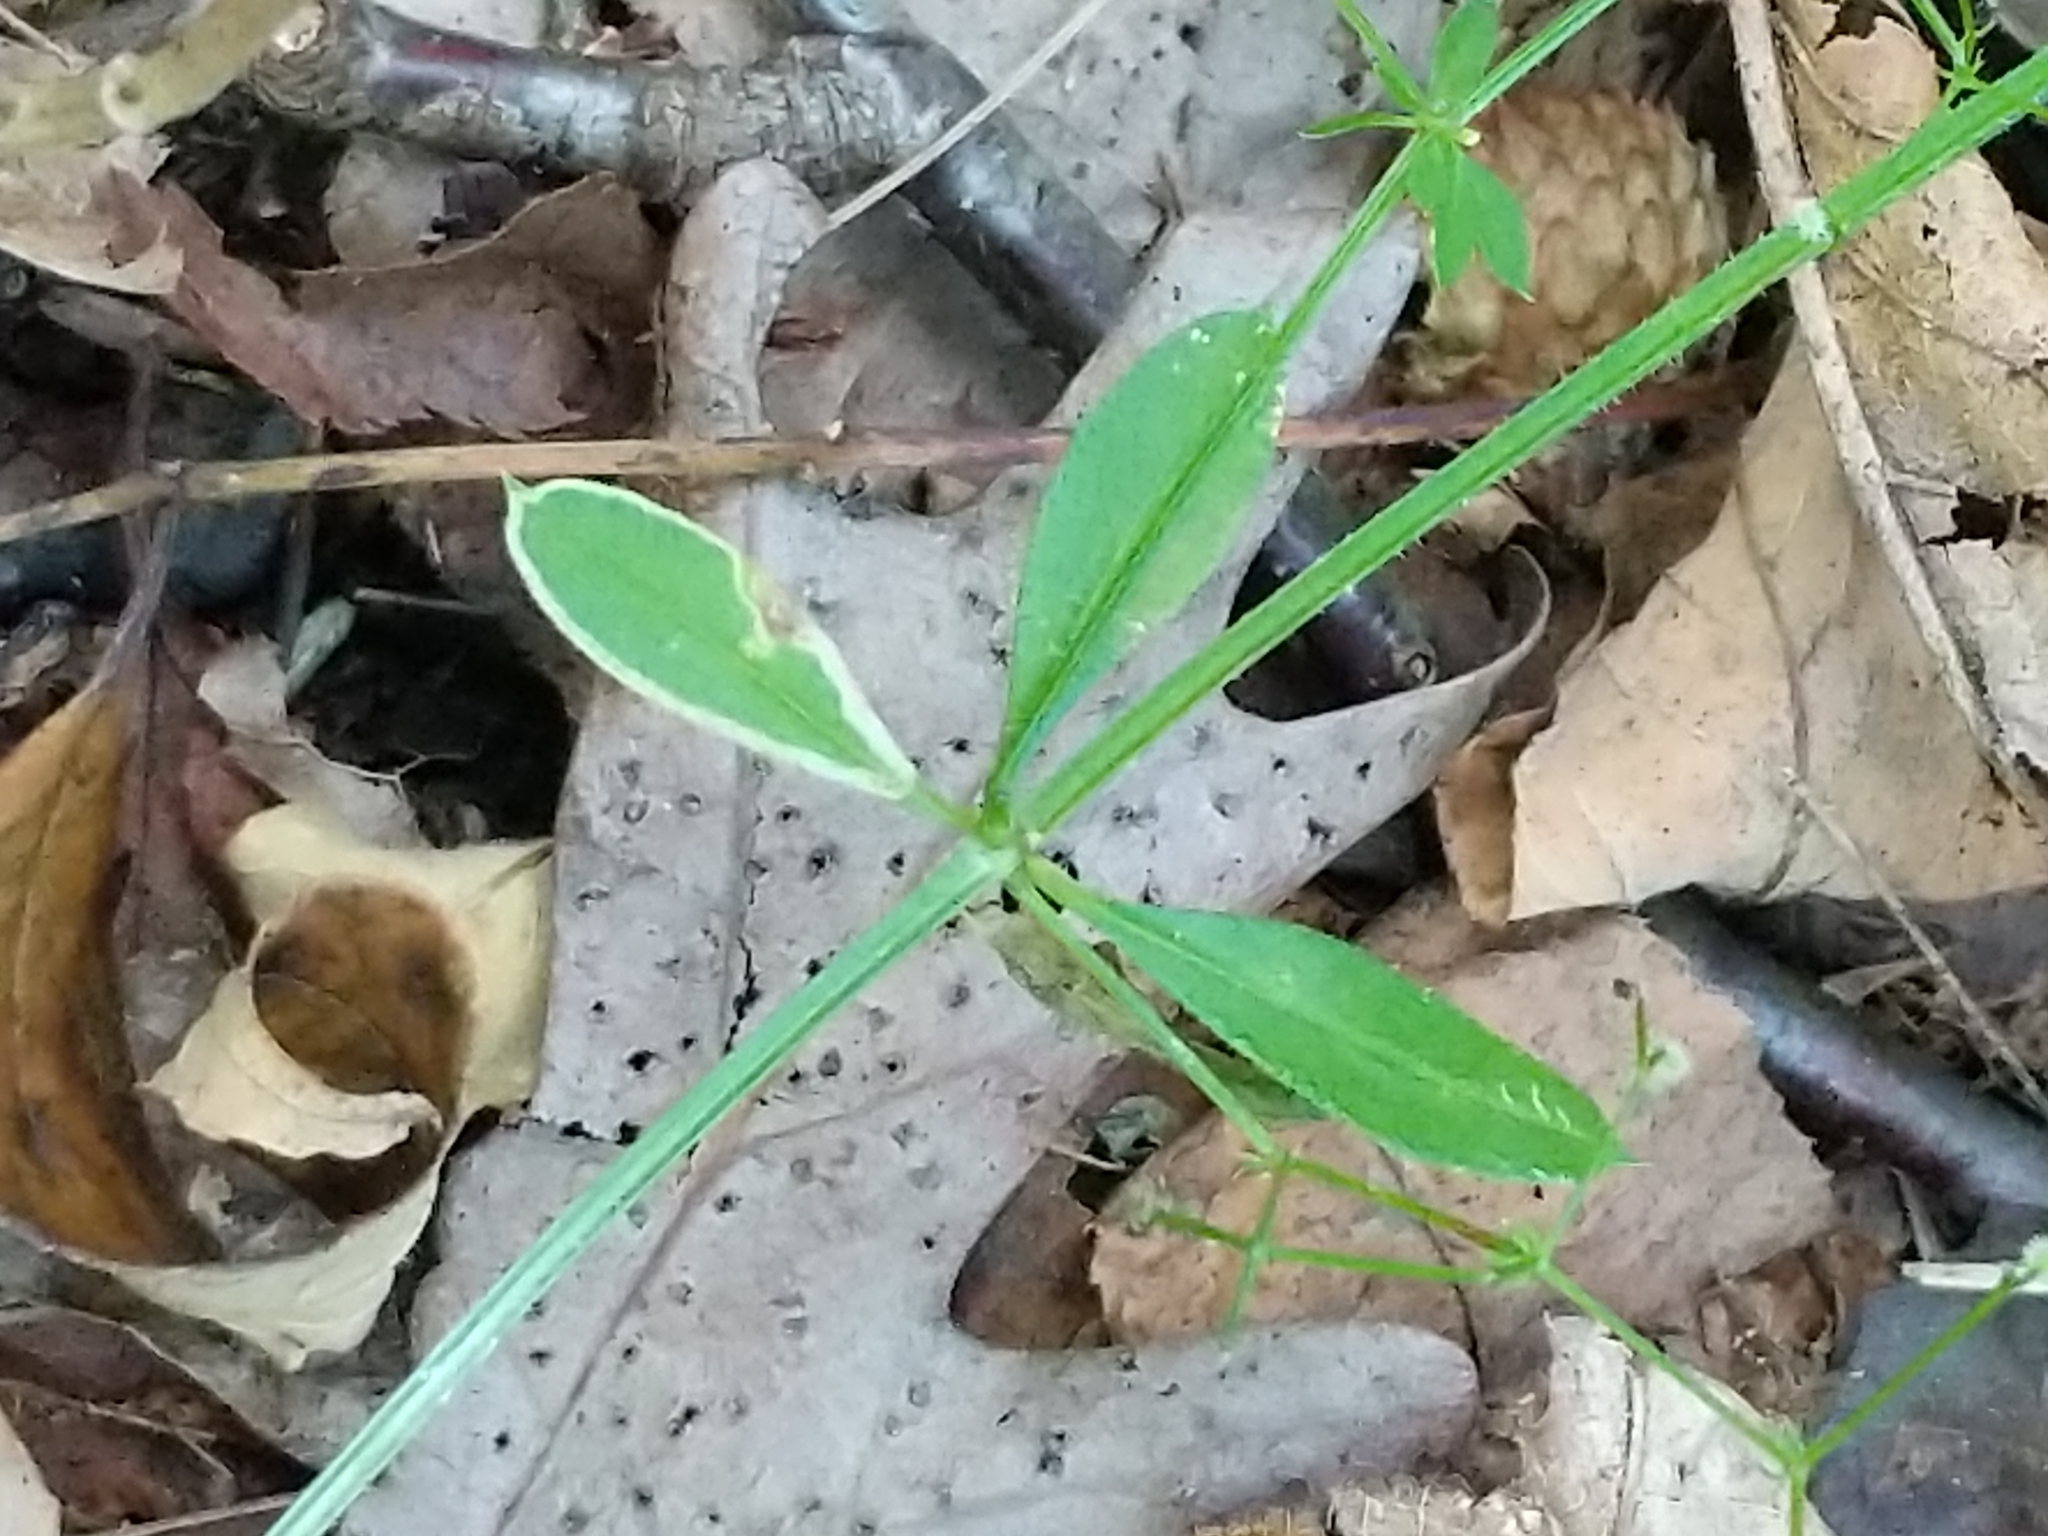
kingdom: Animalia
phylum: Arthropoda
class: Insecta
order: Diptera
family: Agromyzidae
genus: Liriomyza
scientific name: Liriomyza galiivora
